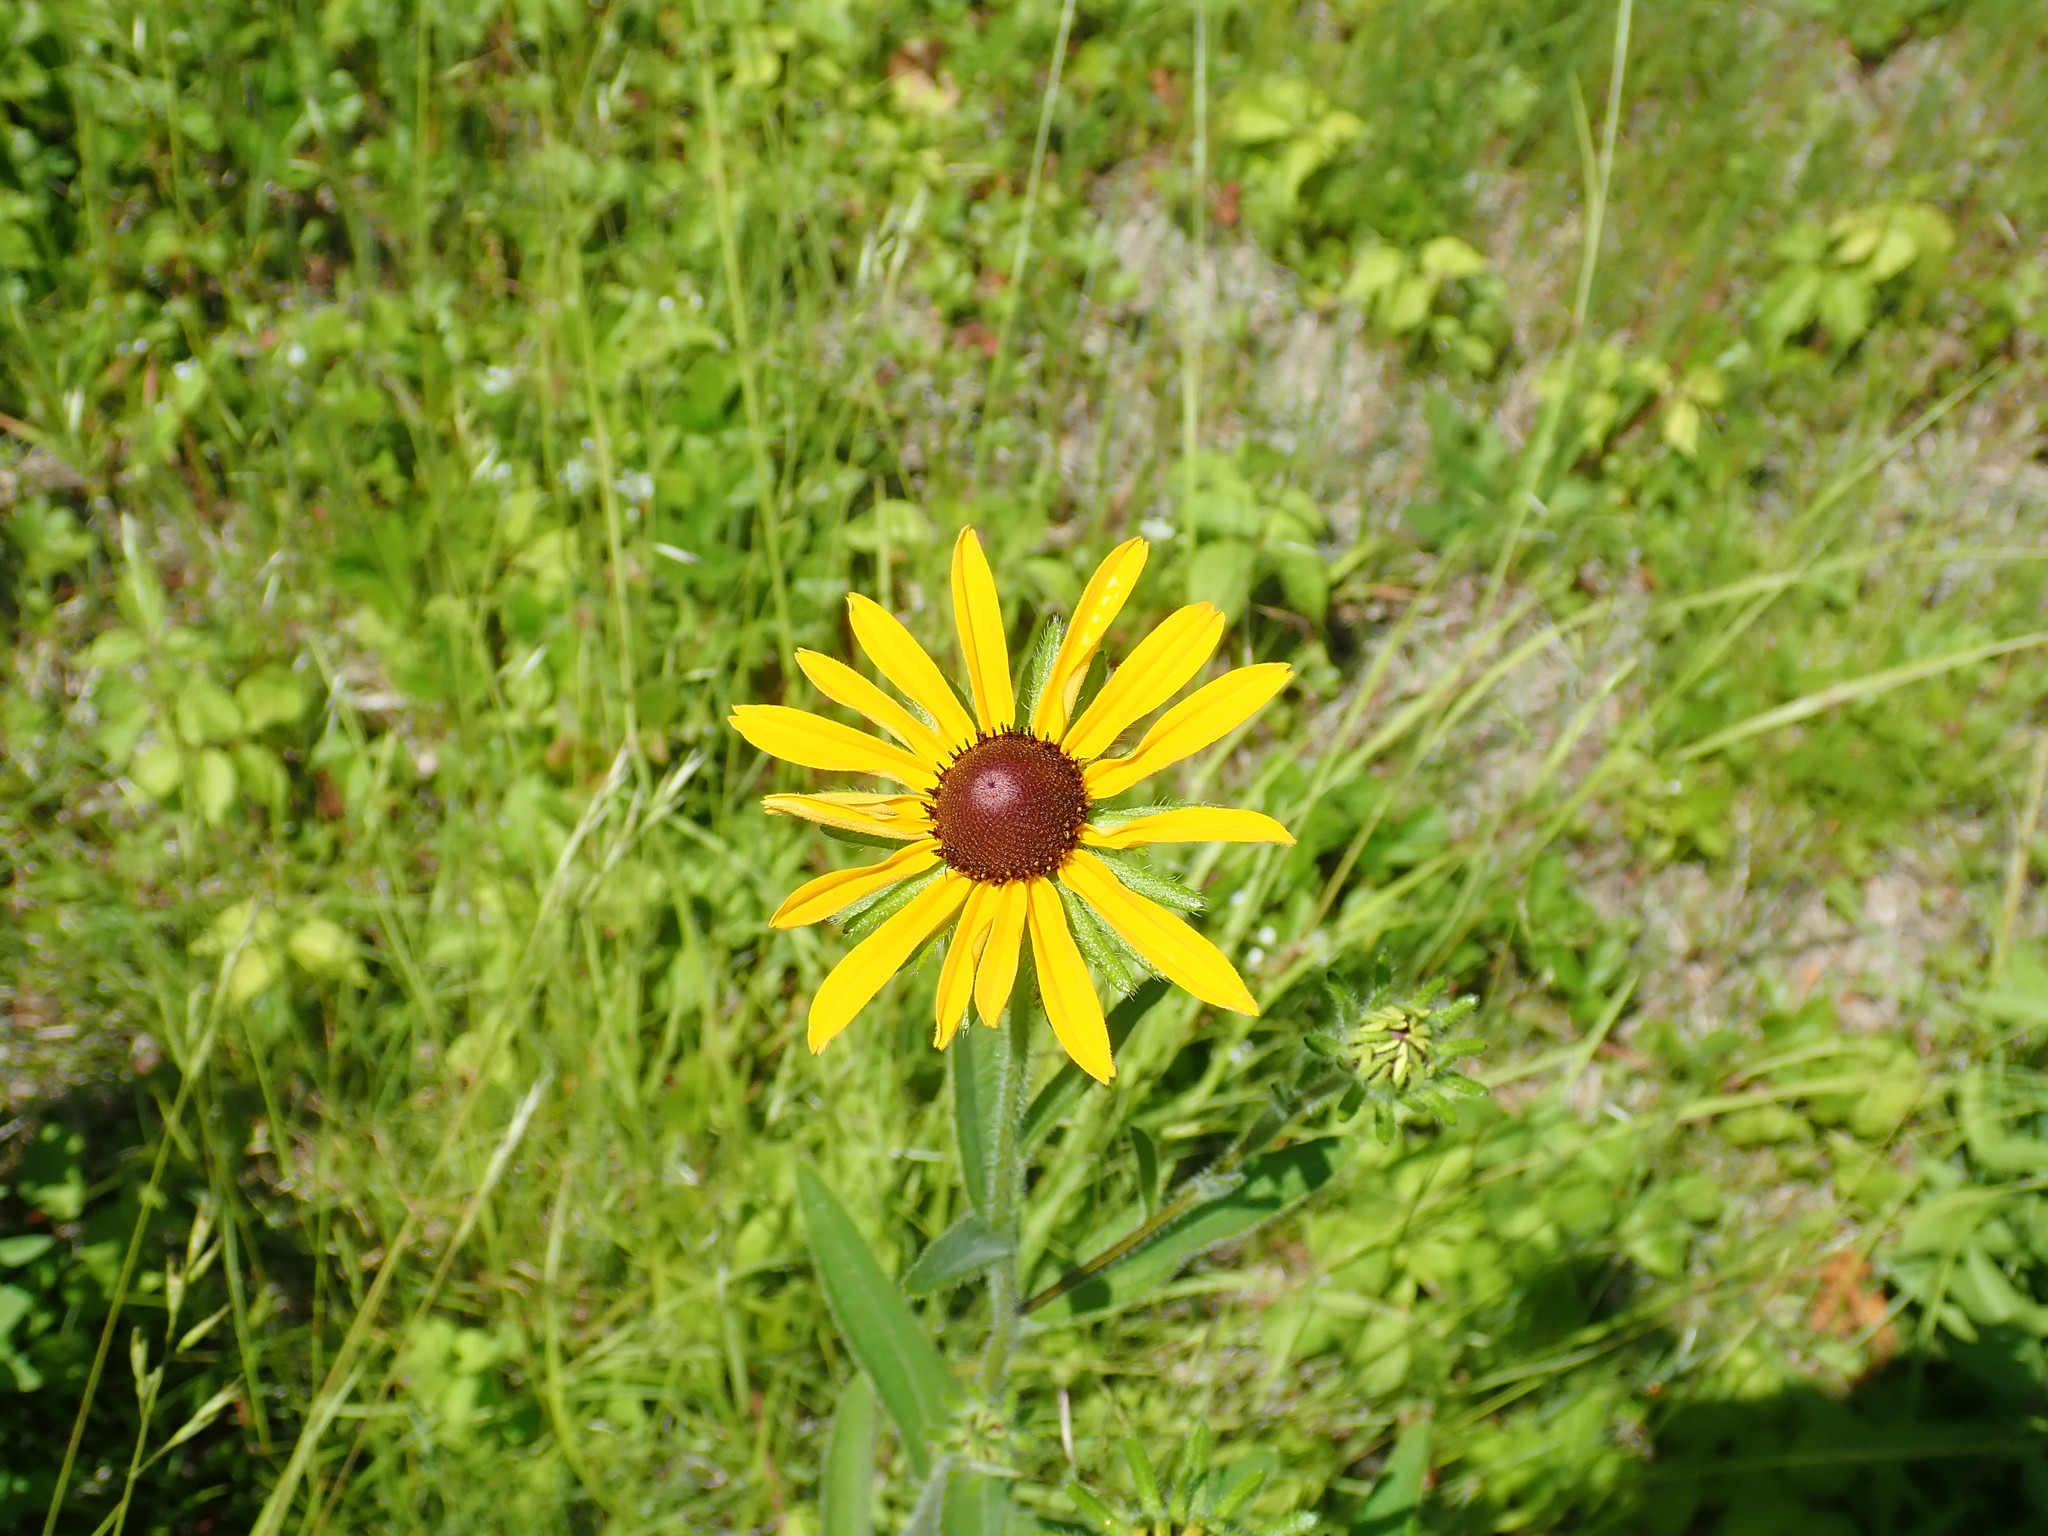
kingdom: Plantae
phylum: Tracheophyta
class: Magnoliopsida
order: Asterales
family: Asteraceae
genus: Rudbeckia
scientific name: Rudbeckia hirta
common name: Black-eyed-susan
